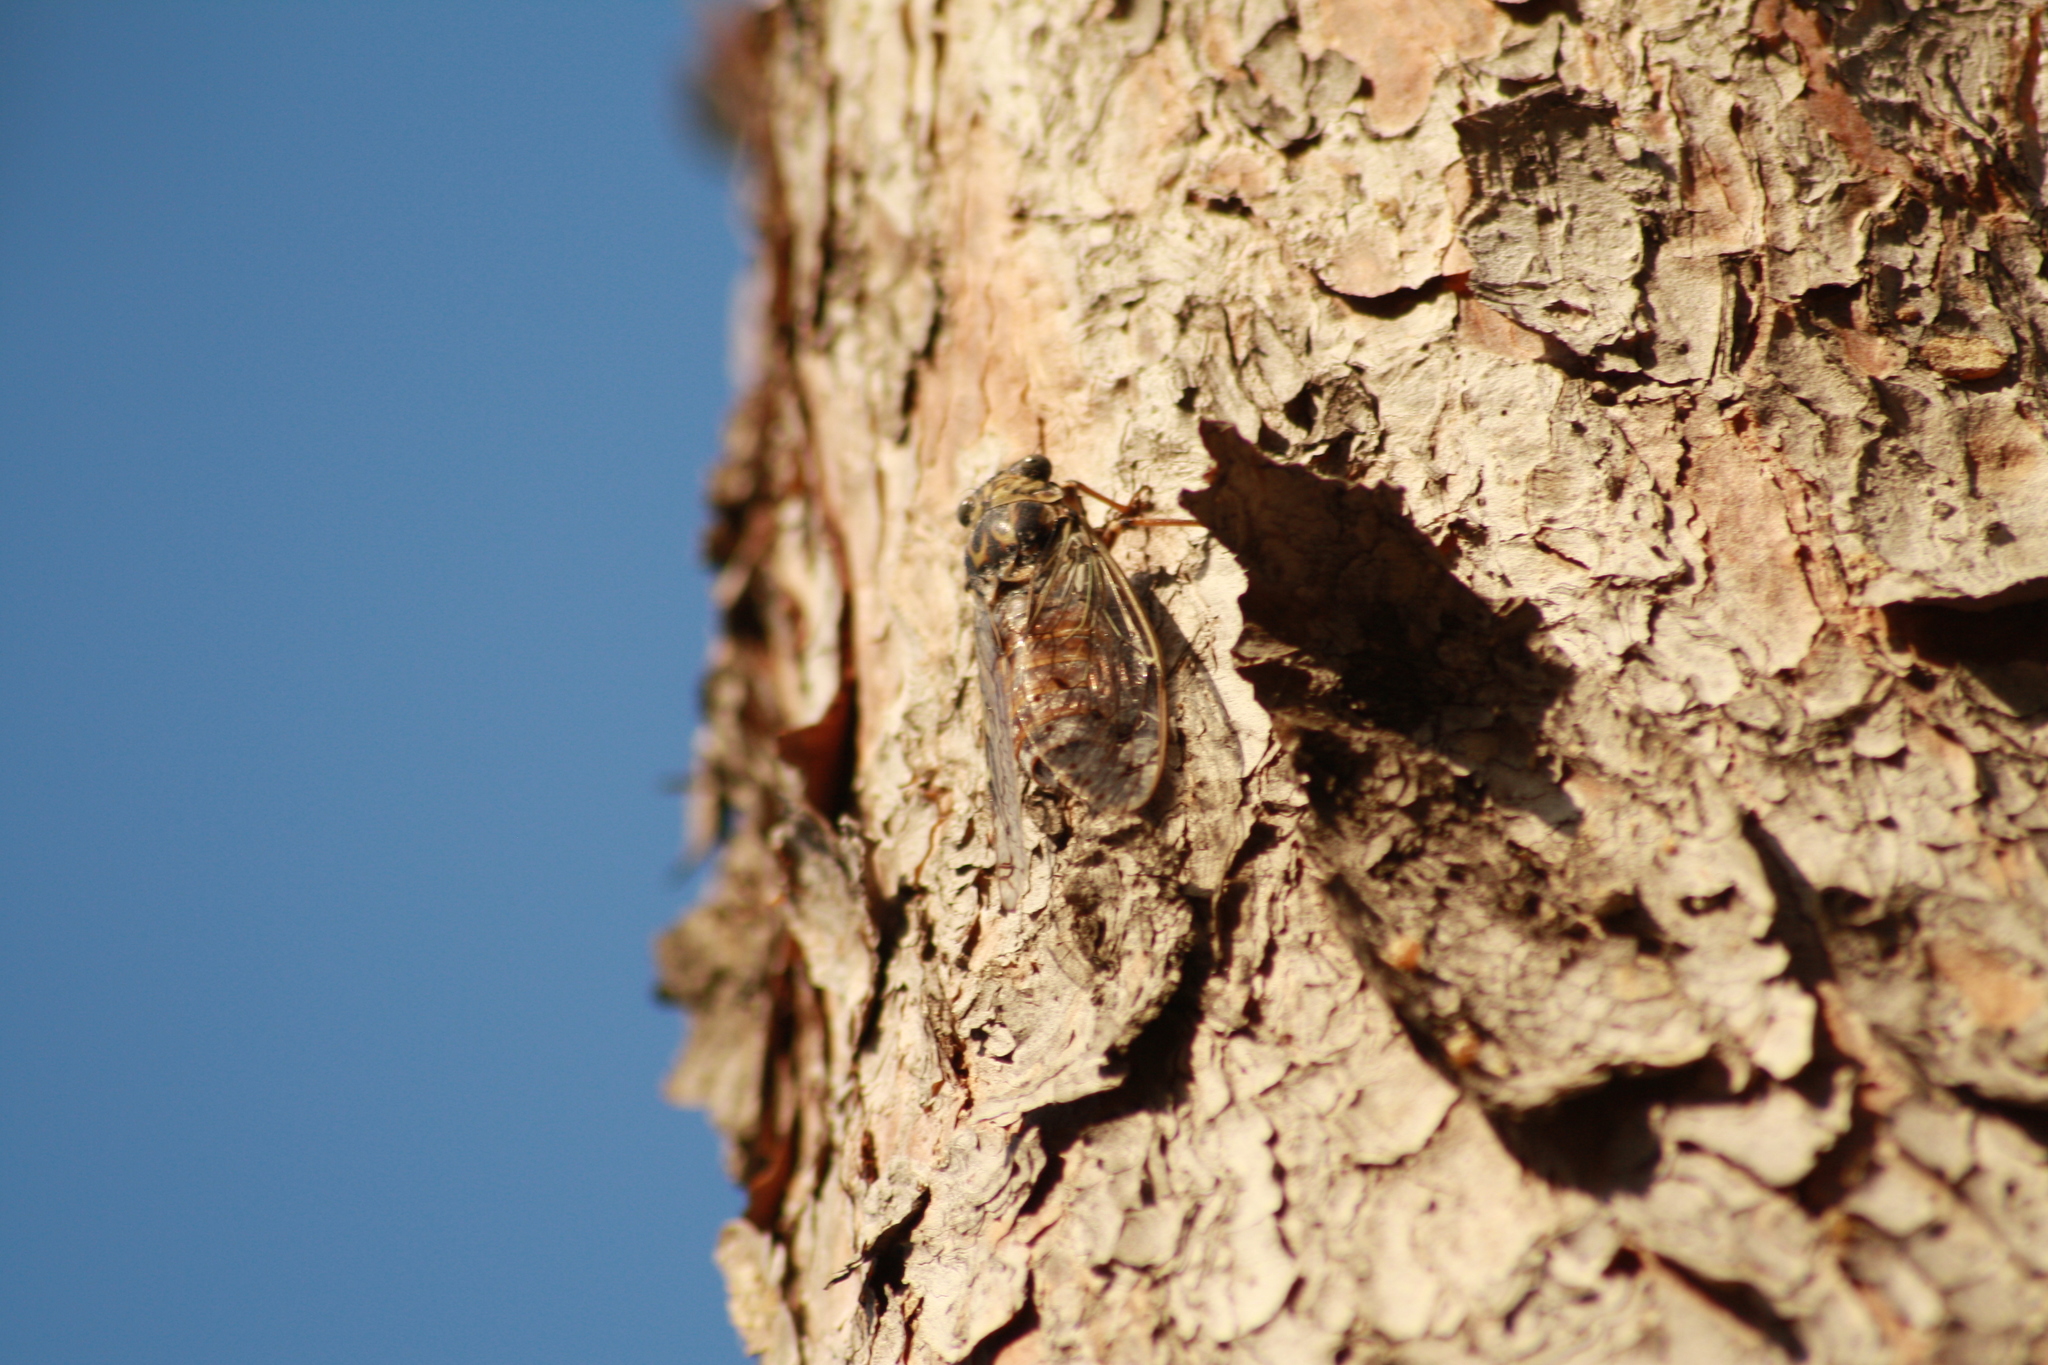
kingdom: Animalia
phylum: Arthropoda
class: Insecta
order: Hemiptera
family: Cicadidae
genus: Cicada
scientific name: Cicada orni
